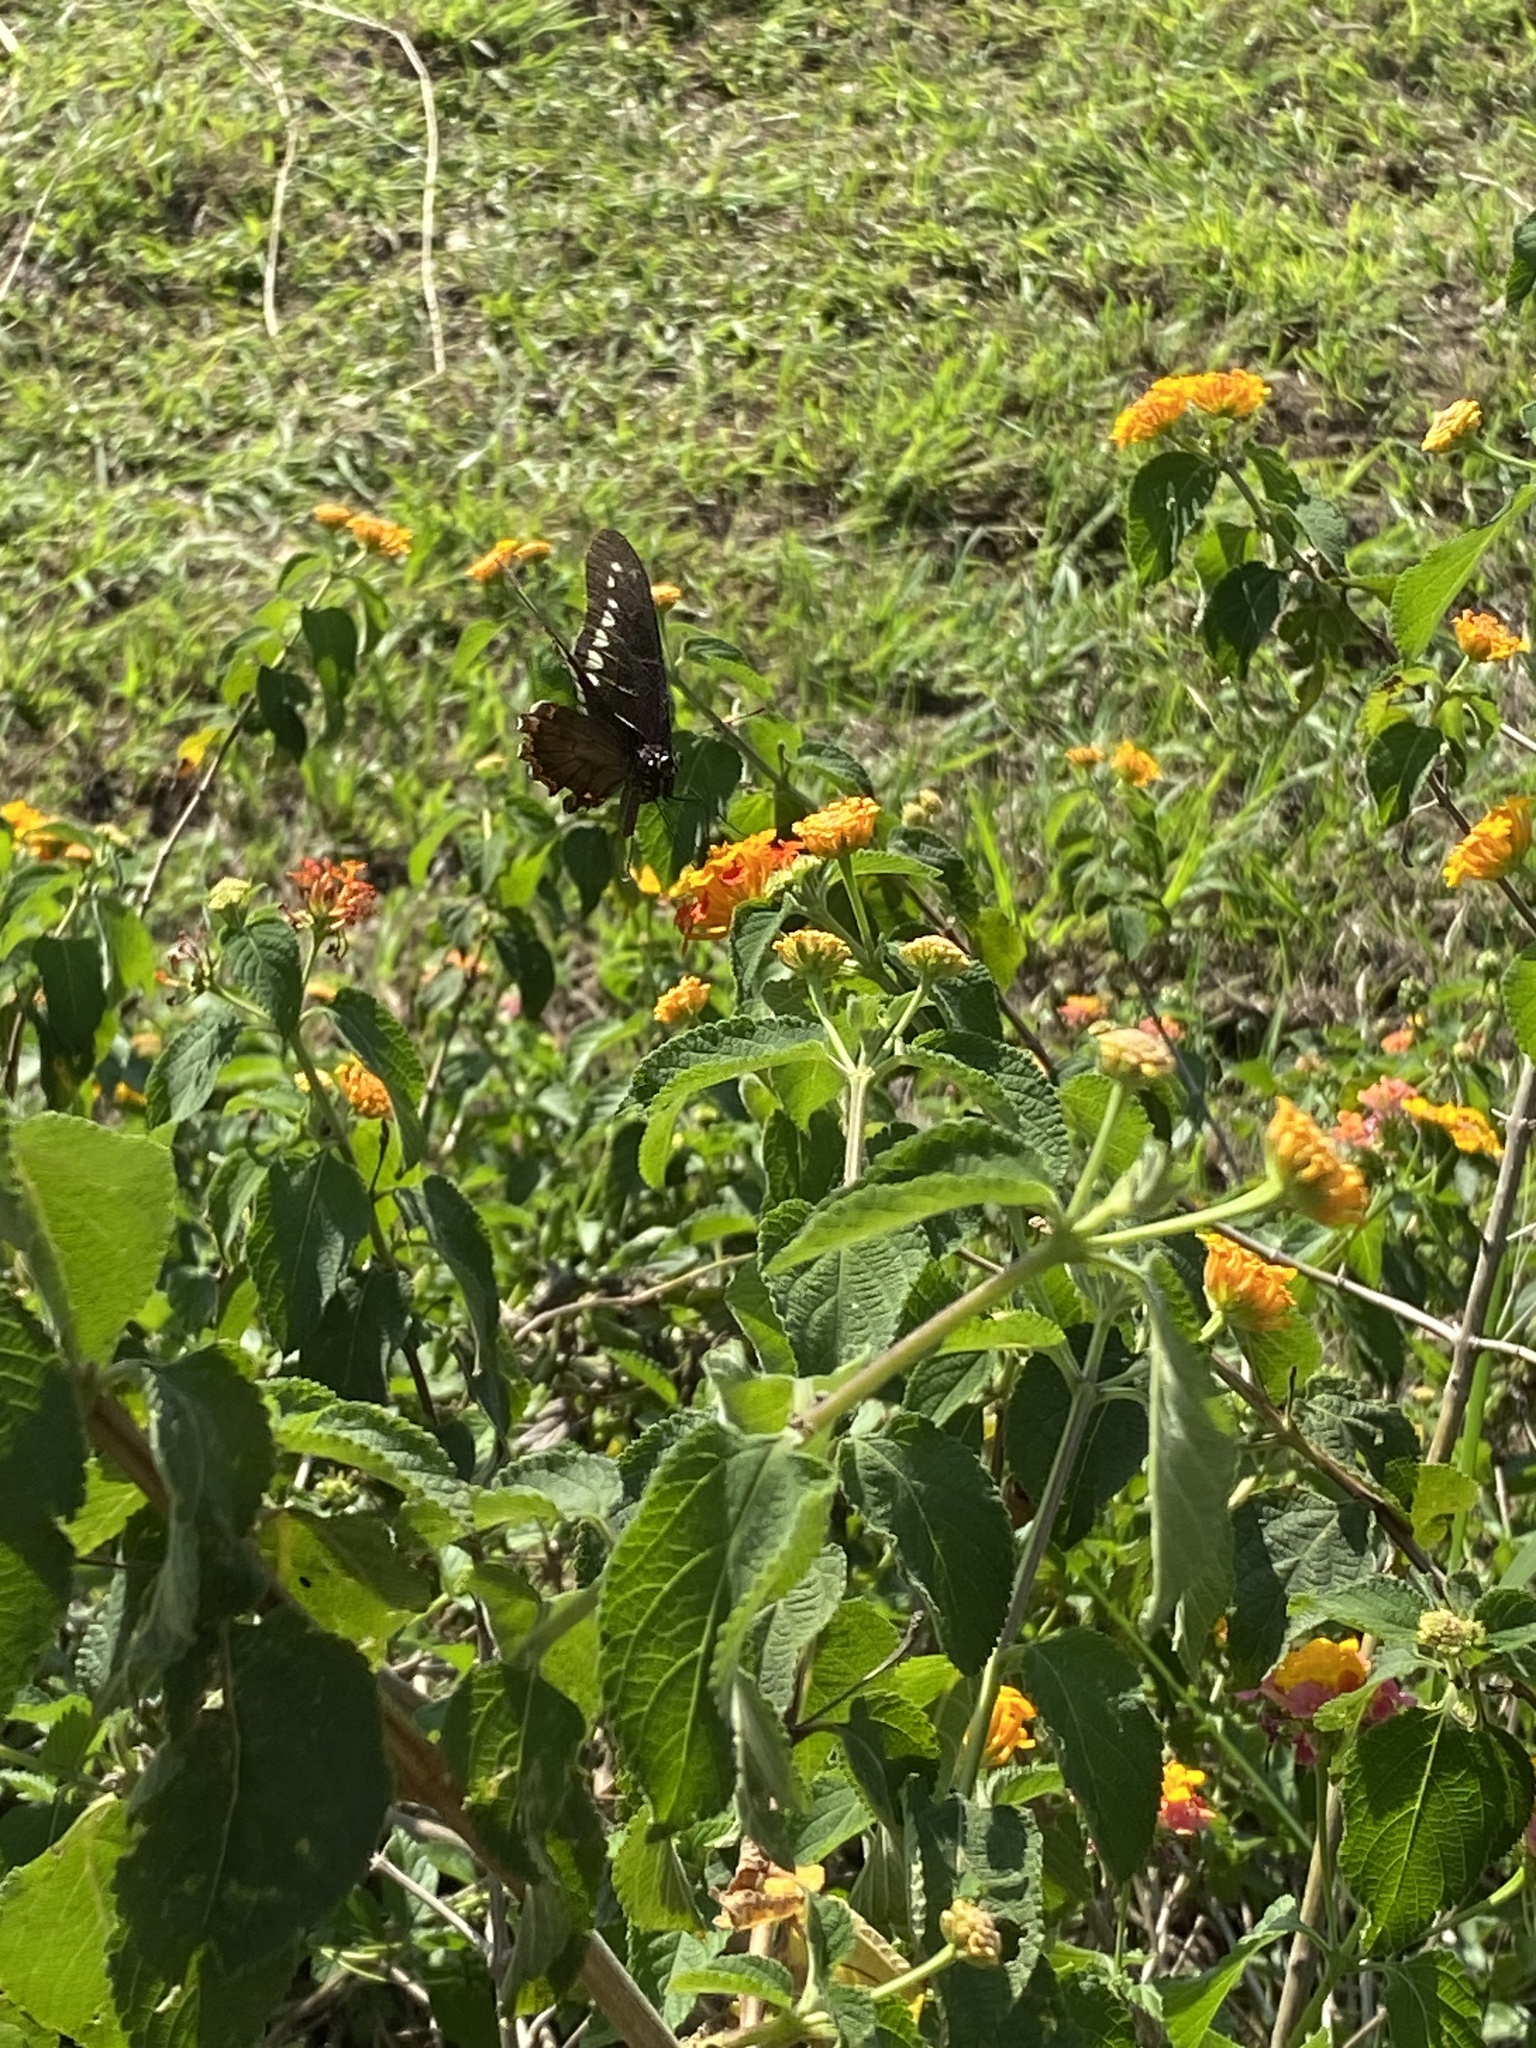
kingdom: Animalia
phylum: Arthropoda
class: Insecta
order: Lepidoptera
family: Papilionidae
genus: Battus
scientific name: Battus polydamas
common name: Polydamas swallowtail
